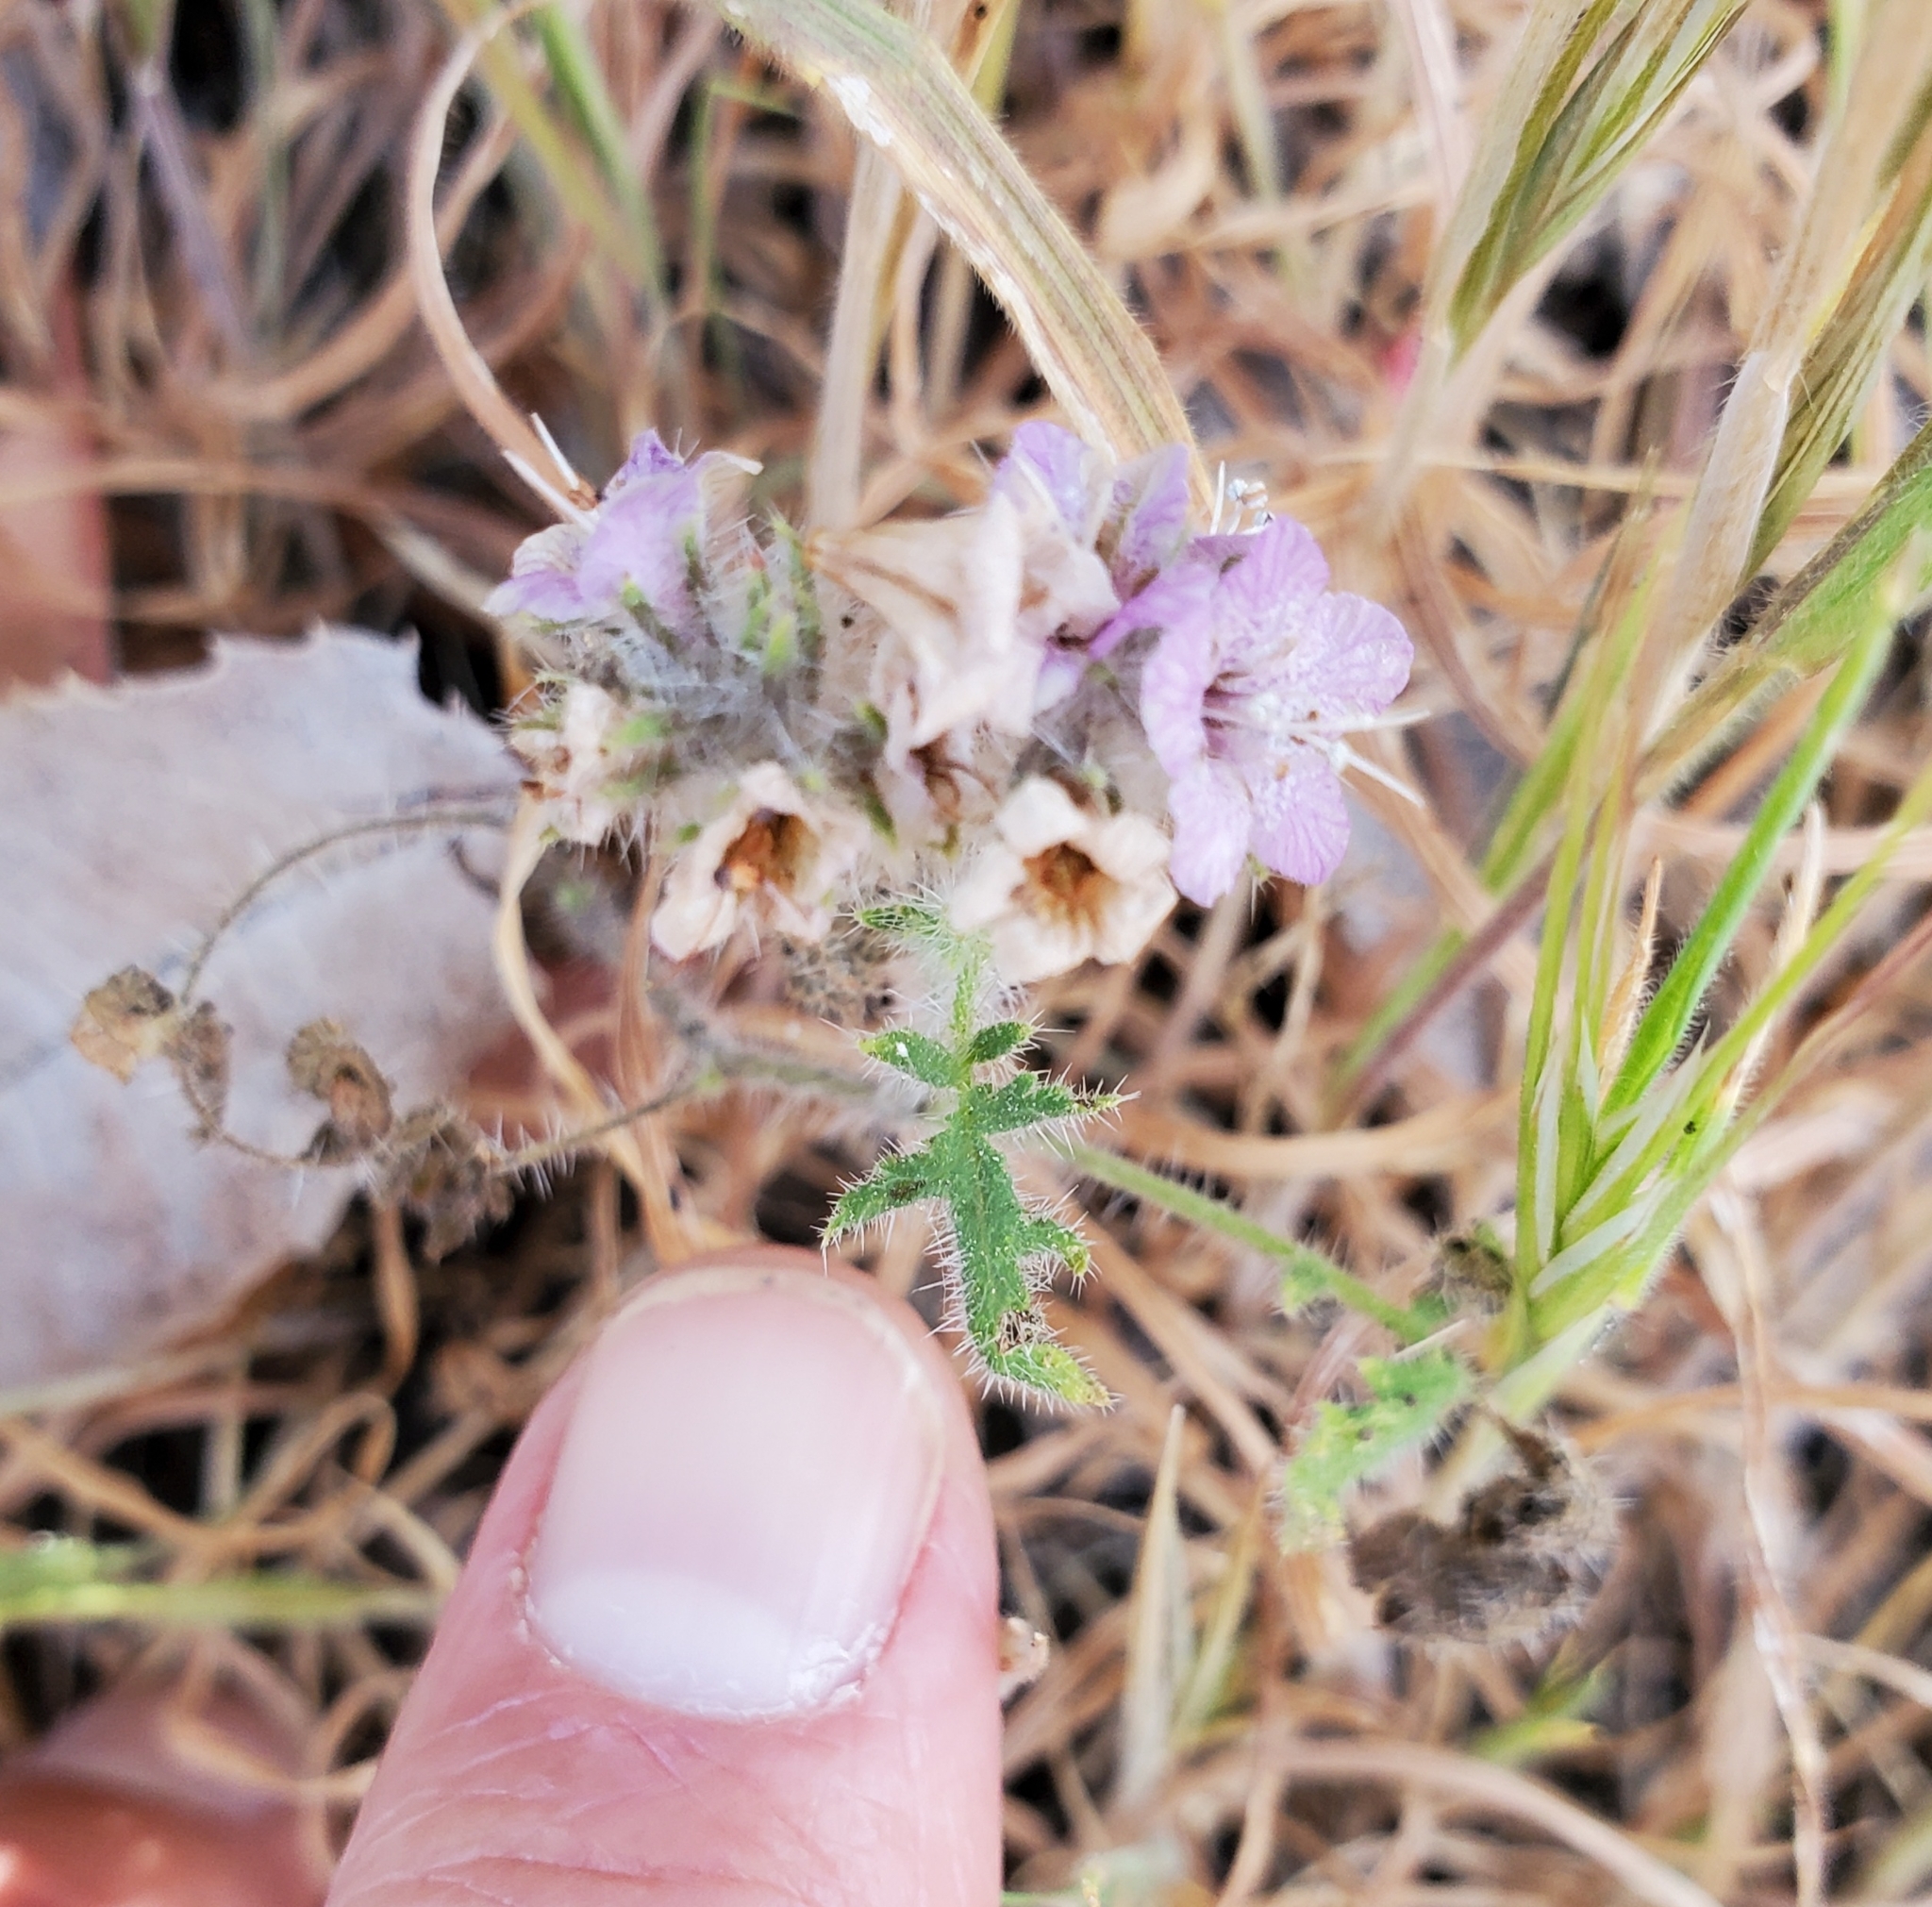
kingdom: Plantae
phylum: Tracheophyta
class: Magnoliopsida
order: Boraginales
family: Hydrophyllaceae
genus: Phacelia
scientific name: Phacelia cicutaria
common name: Caterpillar phacelia
